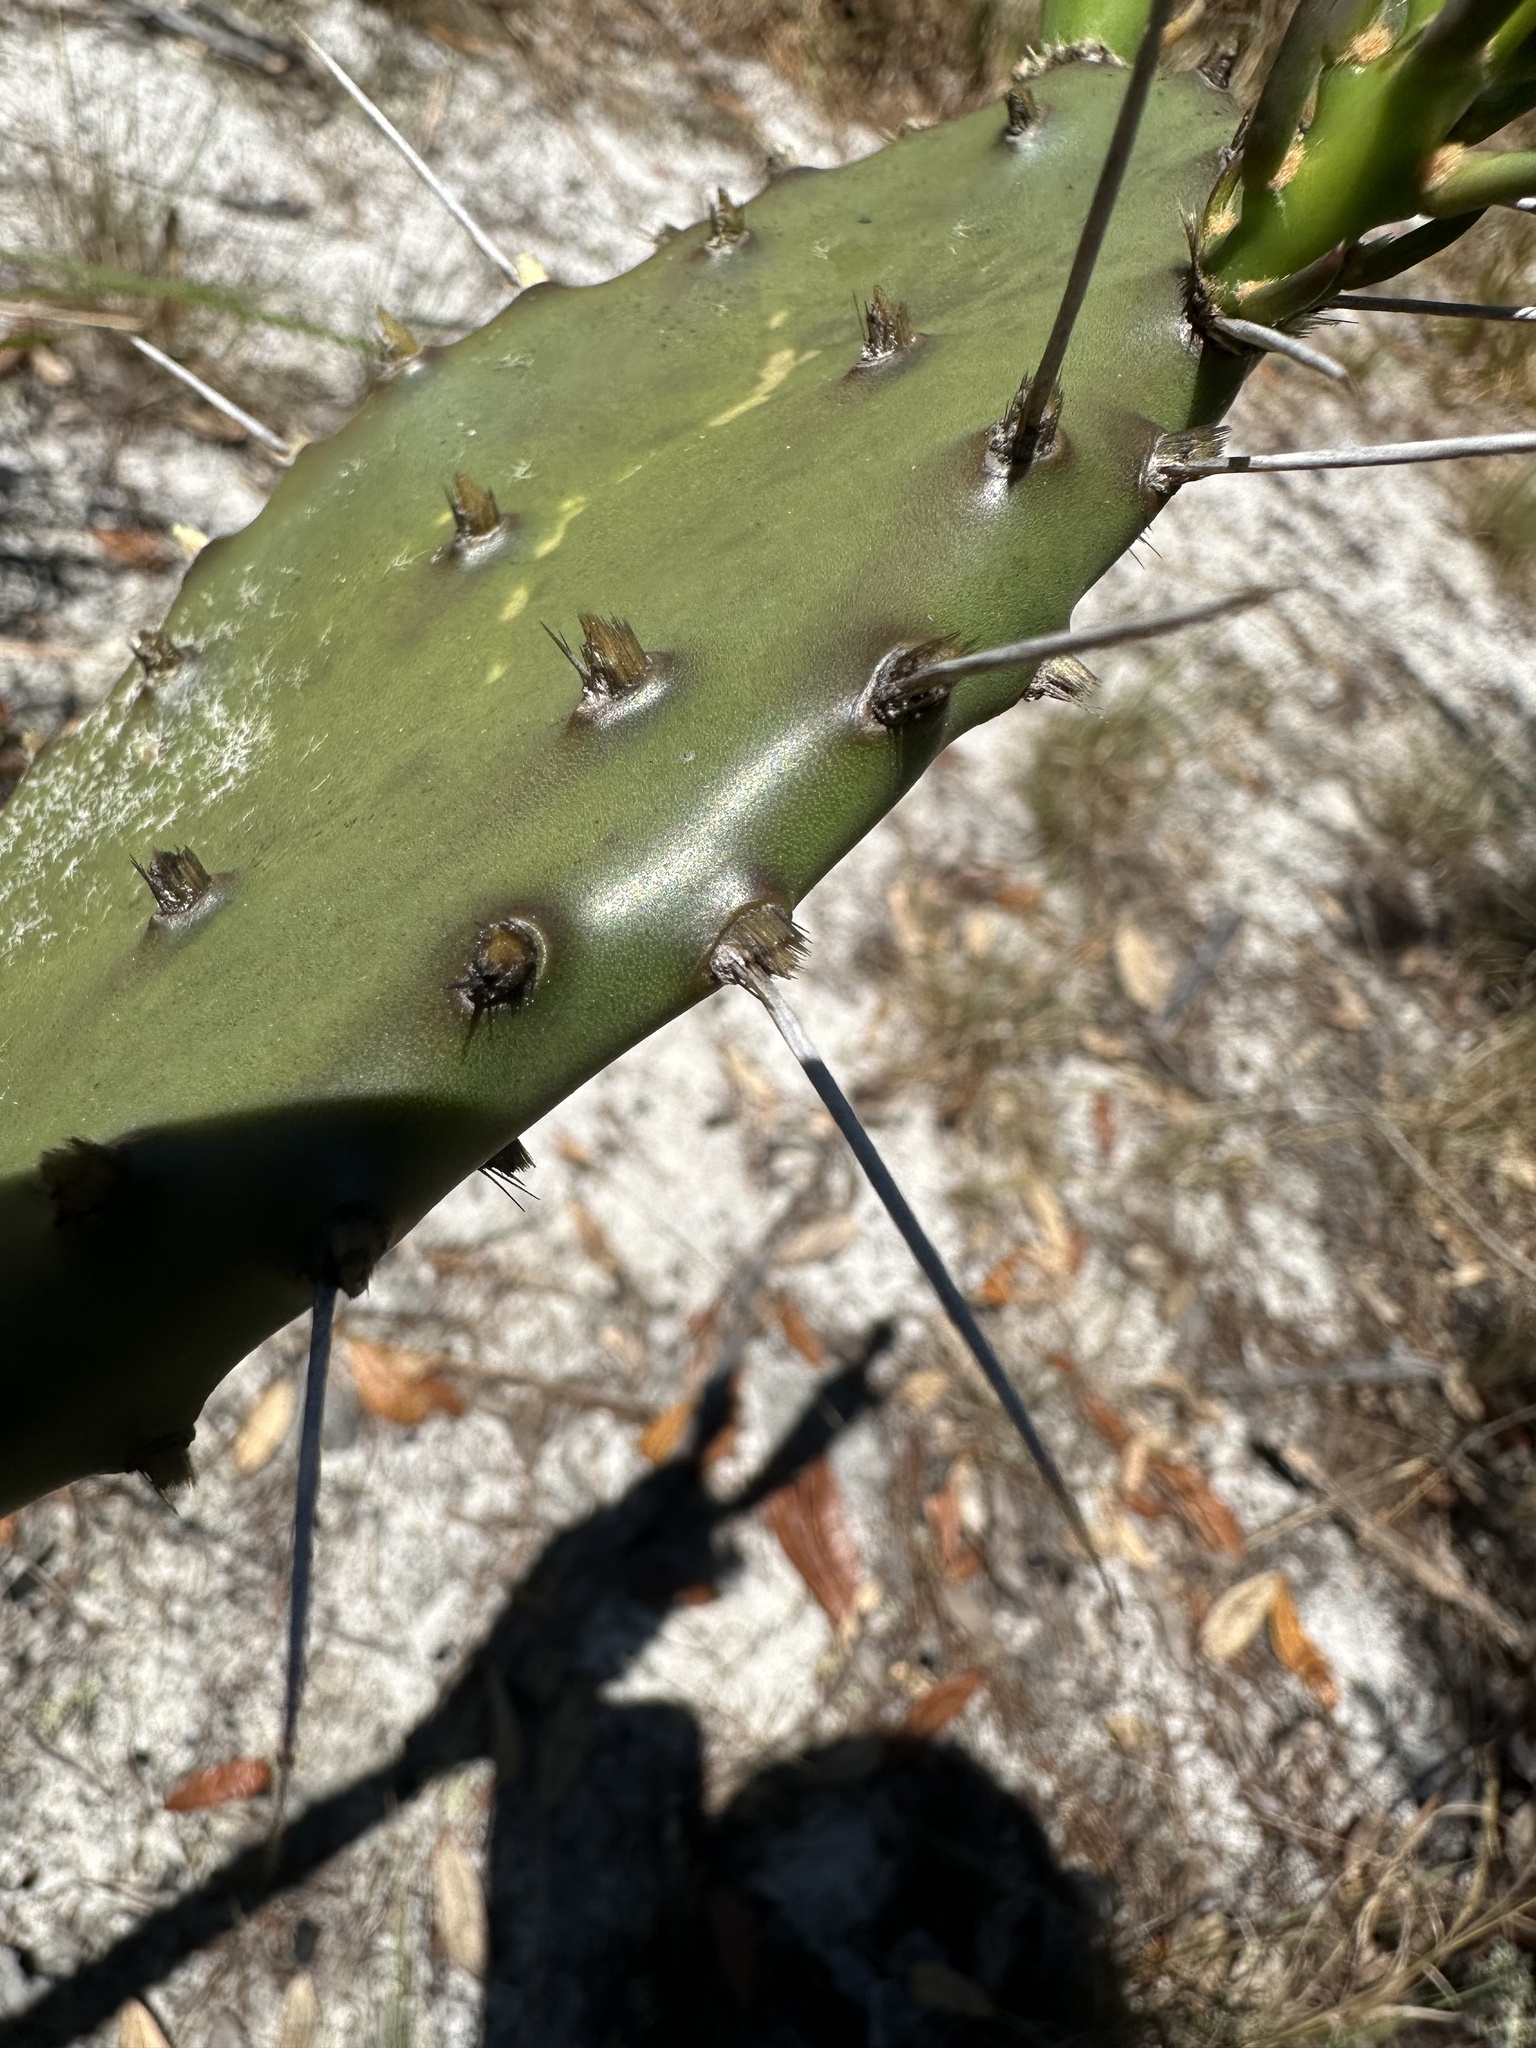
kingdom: Plantae
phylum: Tracheophyta
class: Magnoliopsida
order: Caryophyllales
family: Cactaceae
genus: Opuntia
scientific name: Opuntia austrina
